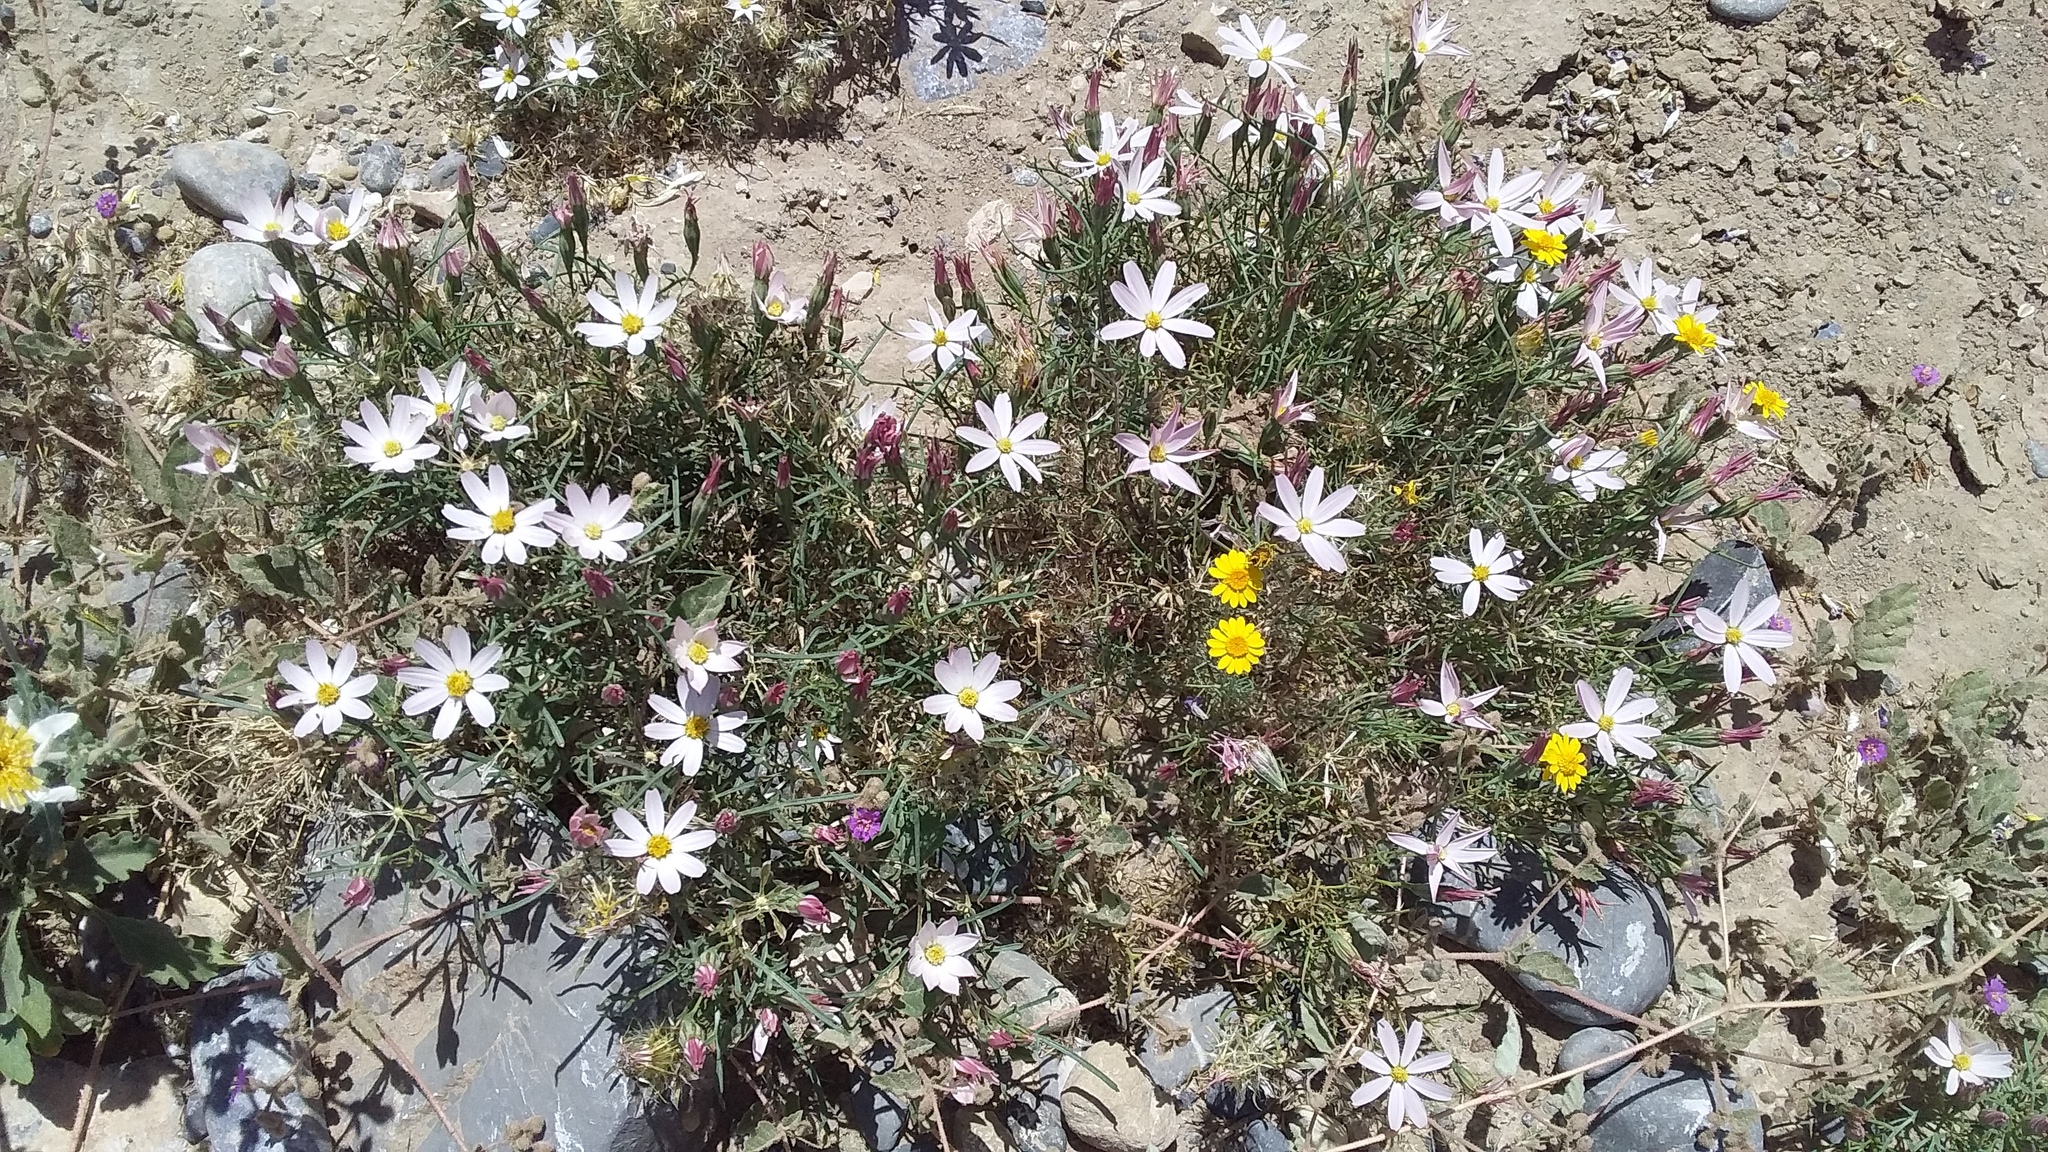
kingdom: Plantae
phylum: Tracheophyta
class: Magnoliopsida
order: Asterales
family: Asteraceae
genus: Nicolletia
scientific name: Nicolletia edwardsii
